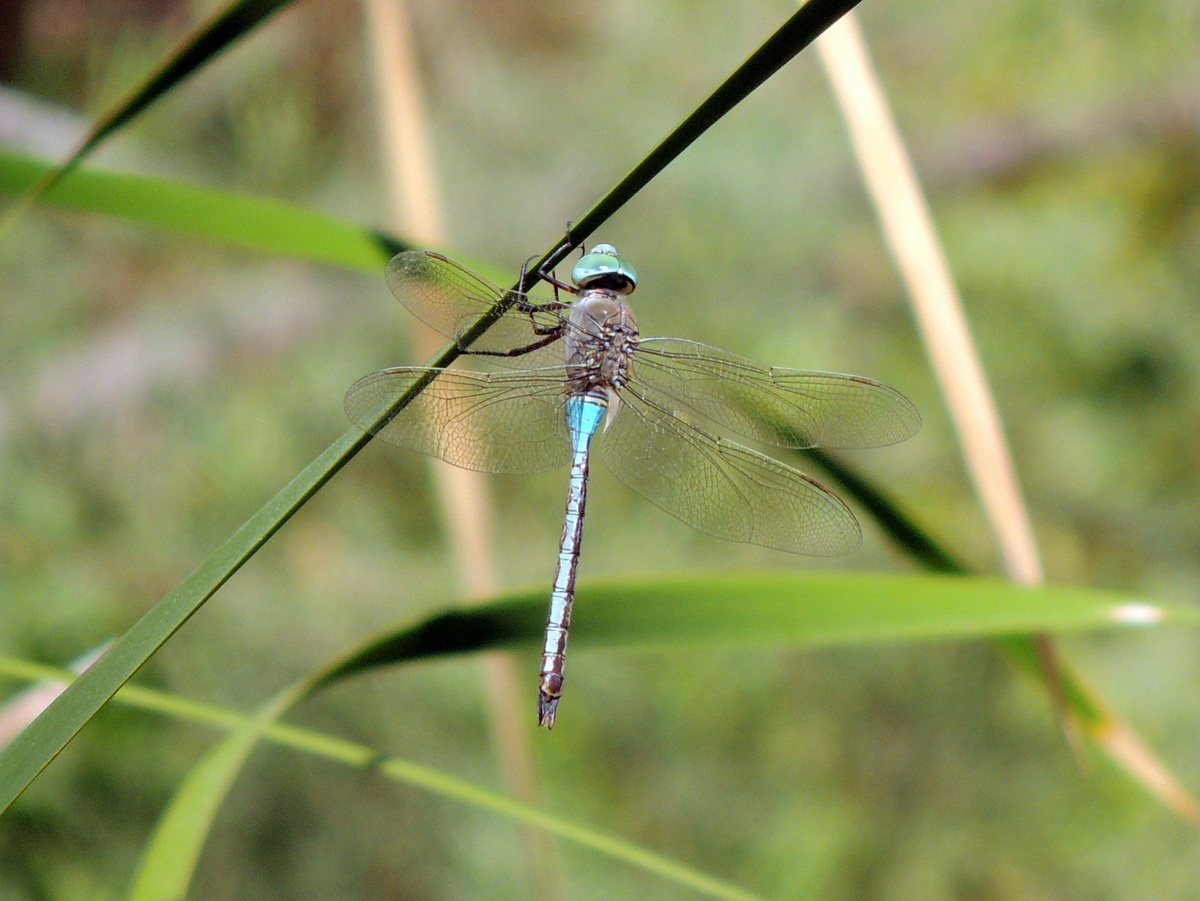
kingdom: Animalia
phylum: Arthropoda
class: Insecta
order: Odonata
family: Aeshnidae
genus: Anax
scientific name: Anax parthenope
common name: Lesser emperor
